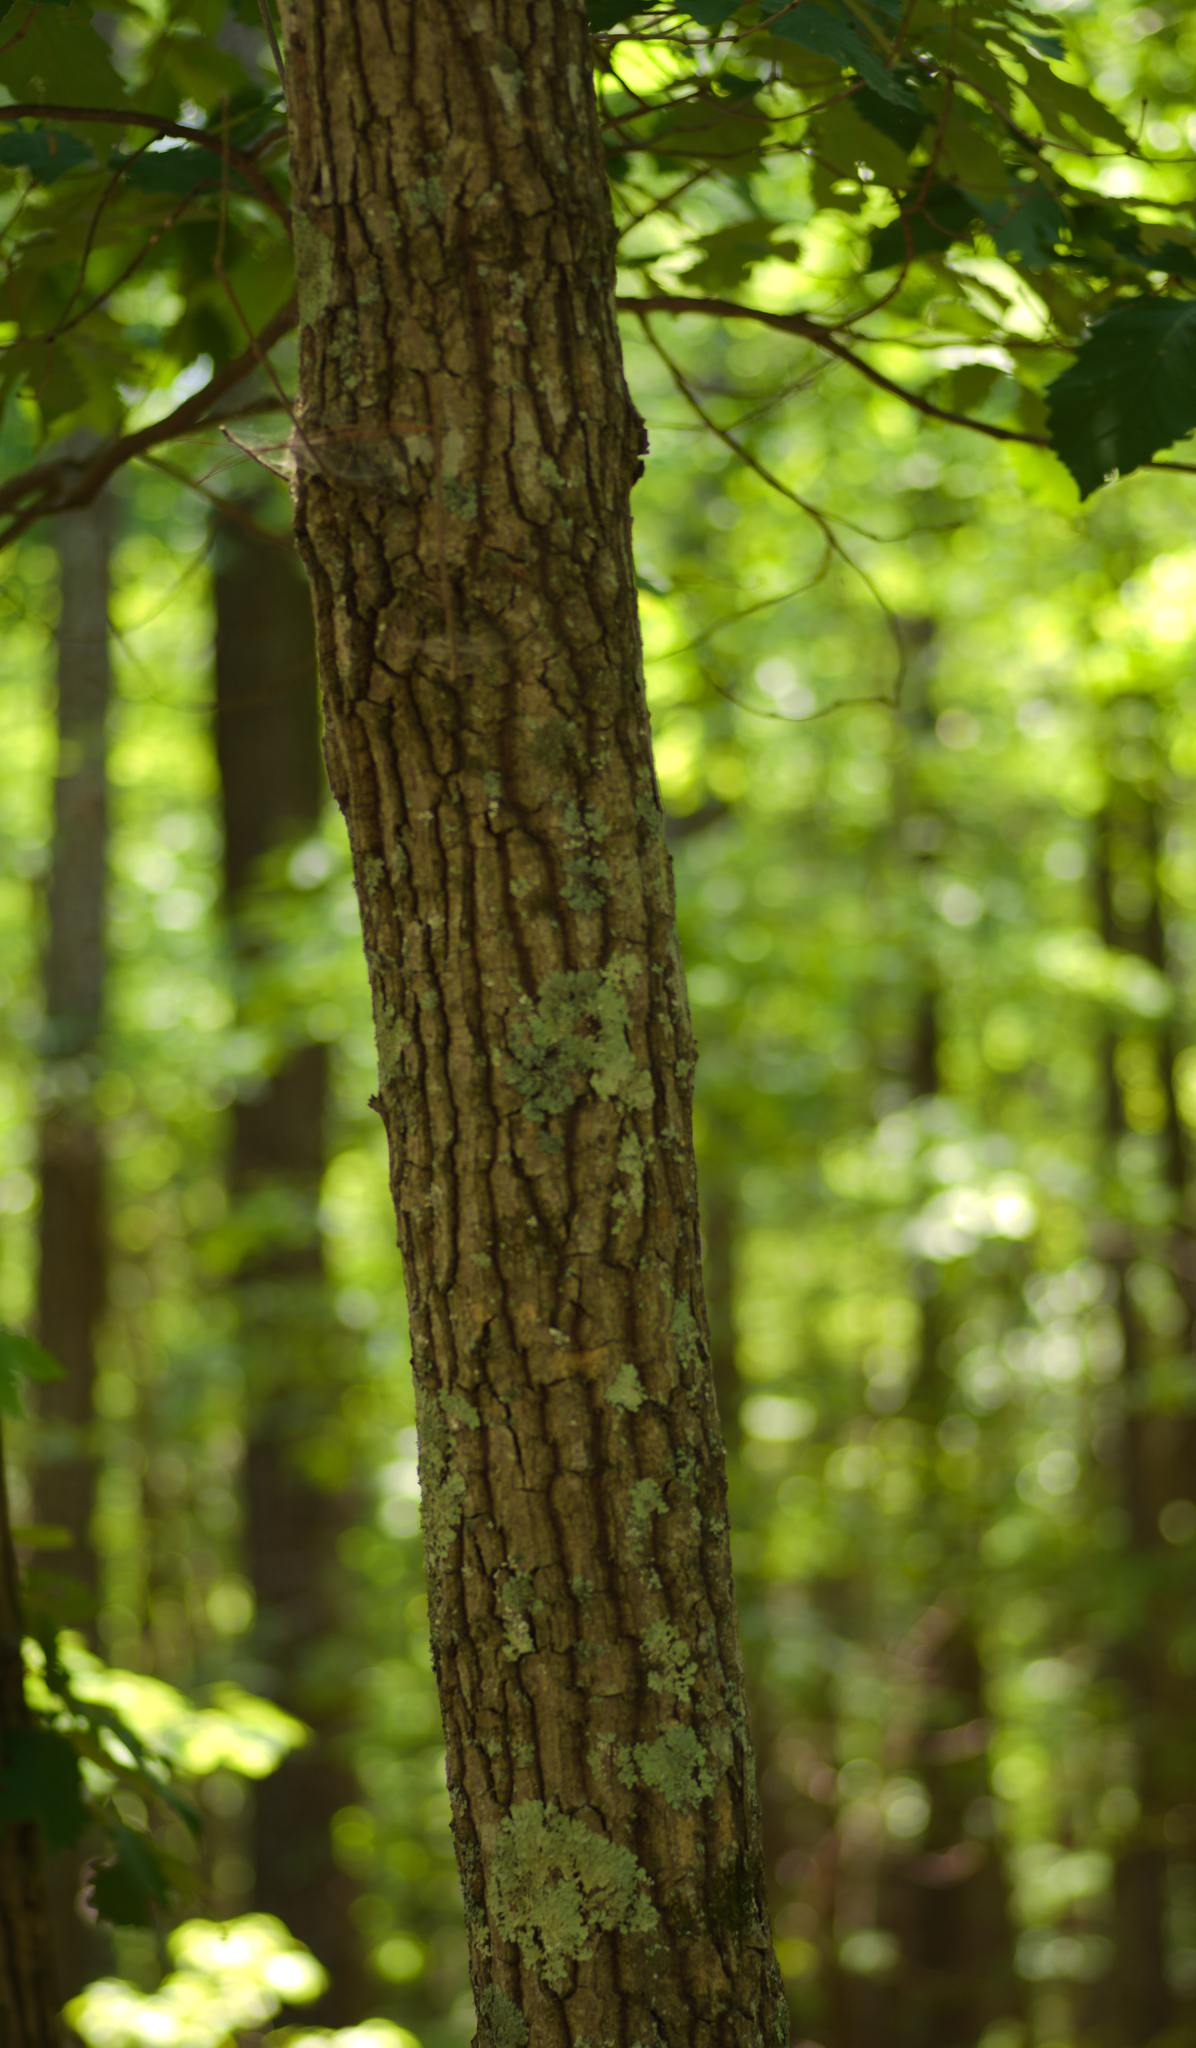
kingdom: Plantae
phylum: Tracheophyta
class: Magnoliopsida
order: Fagales
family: Fagaceae
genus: Quercus
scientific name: Quercus montana
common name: Chestnut oak
